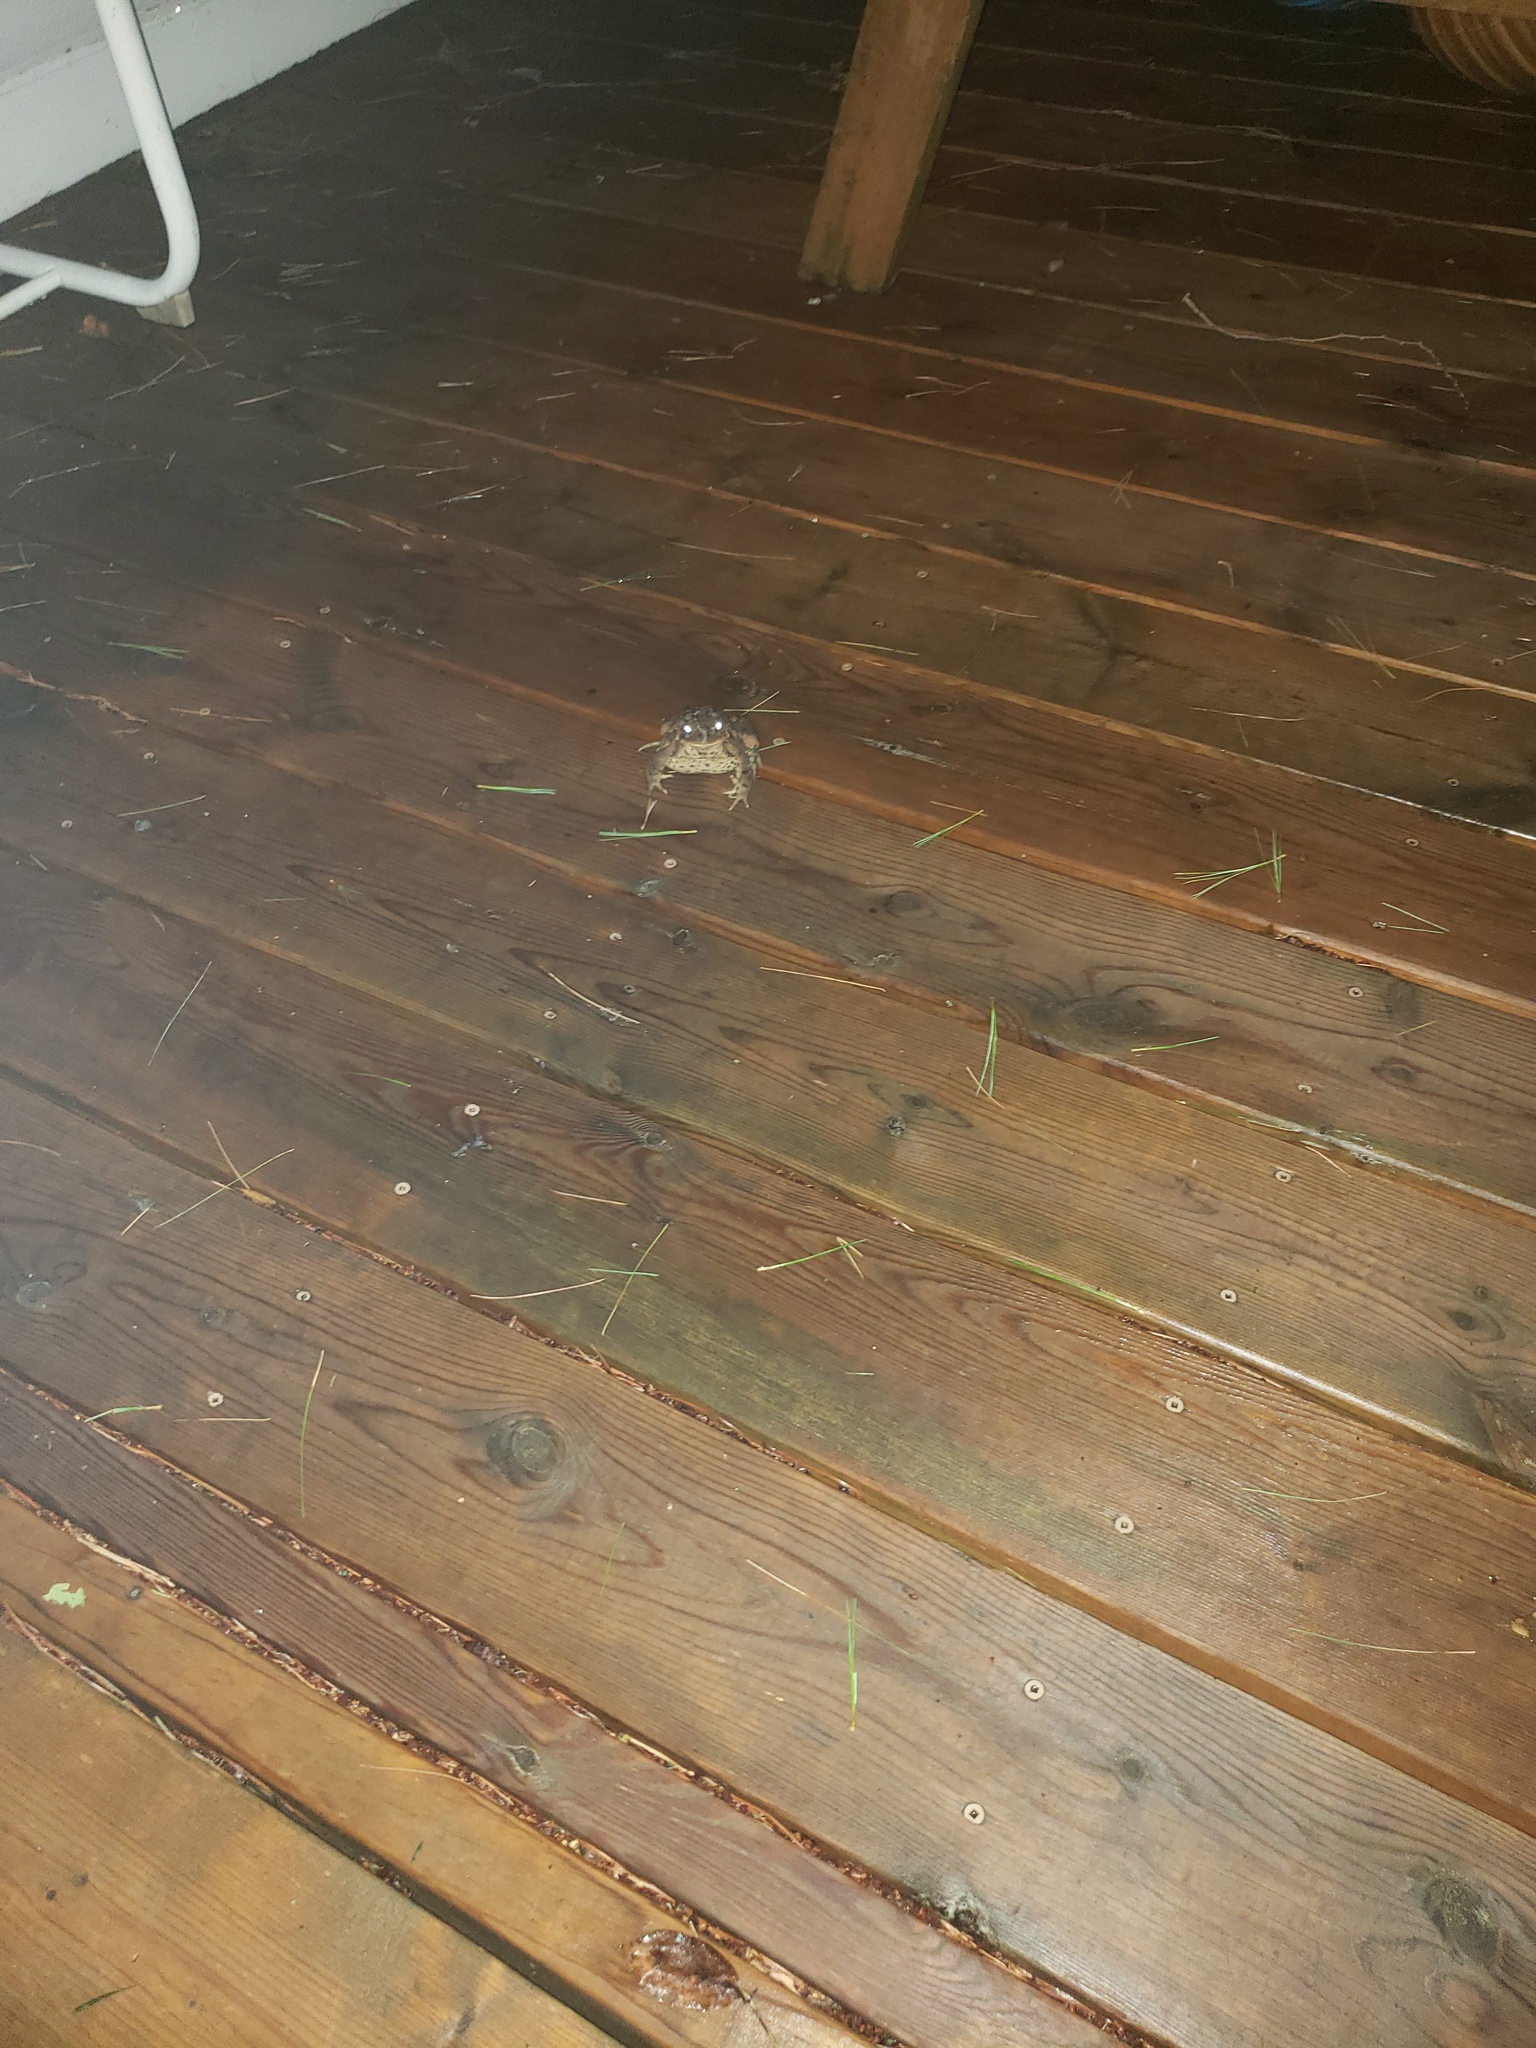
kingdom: Animalia
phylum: Chordata
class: Amphibia
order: Anura
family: Bufonidae
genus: Anaxyrus
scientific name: Anaxyrus americanus
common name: American toad
